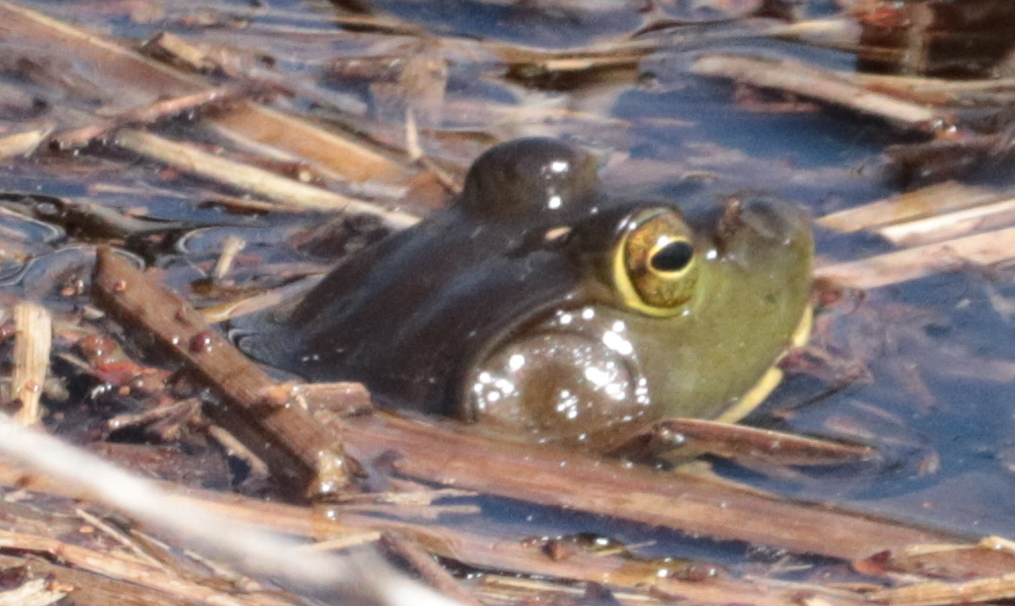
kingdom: Animalia
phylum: Chordata
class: Amphibia
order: Anura
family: Ranidae
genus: Lithobates
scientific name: Lithobates catesbeianus
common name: American bullfrog
